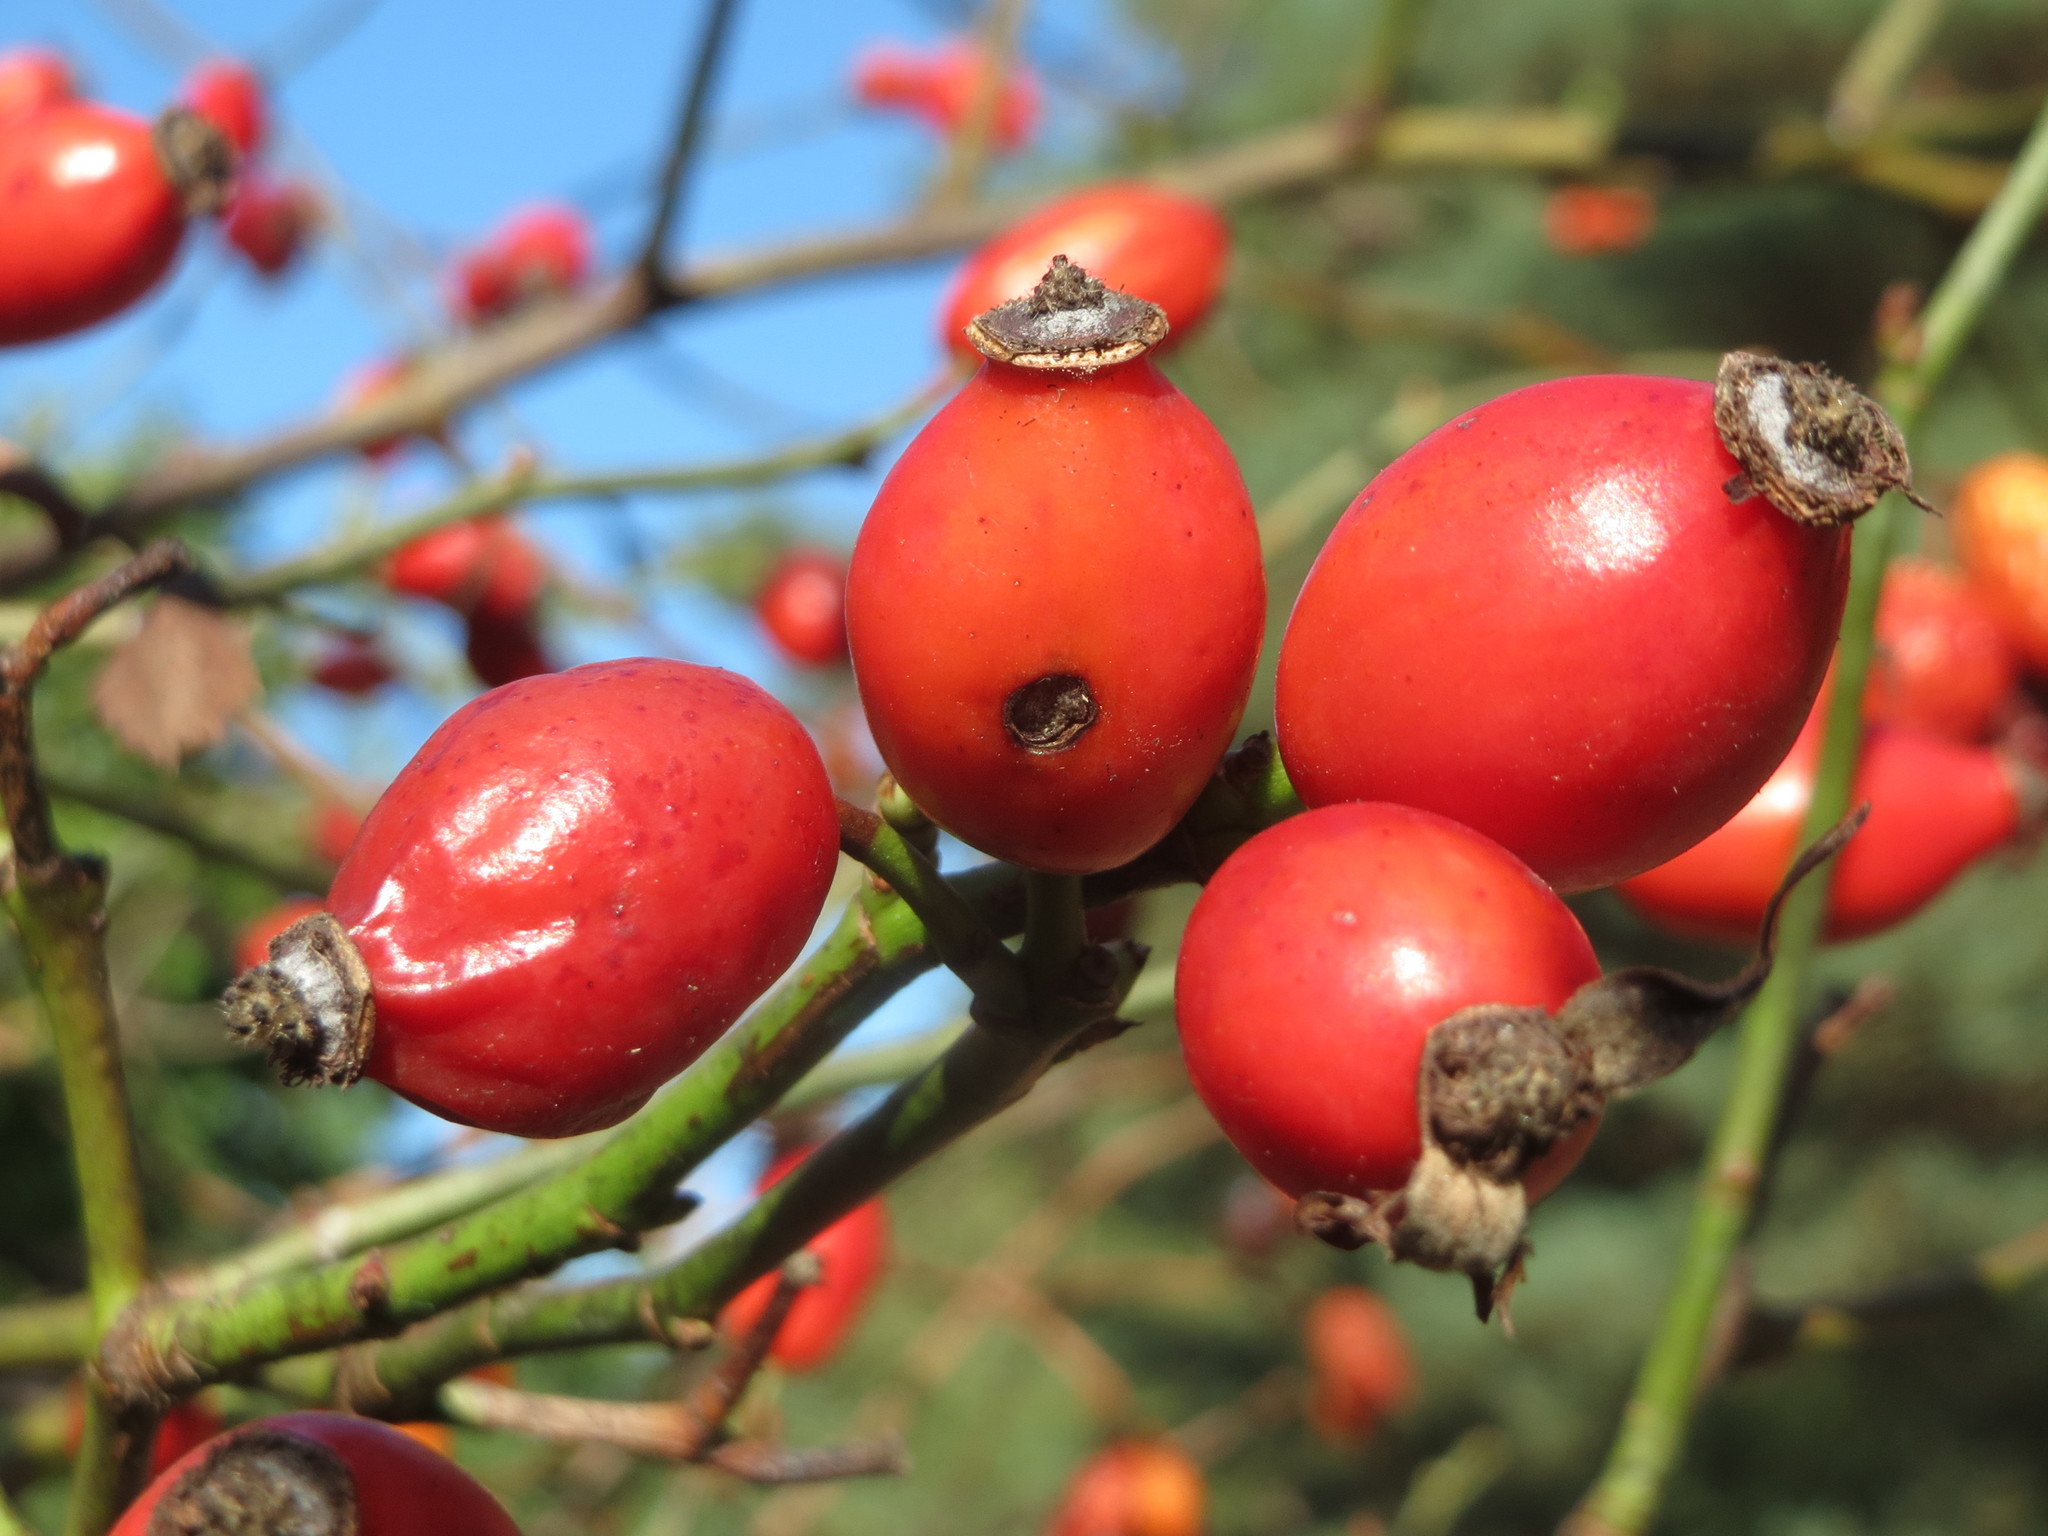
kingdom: Plantae
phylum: Tracheophyta
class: Magnoliopsida
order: Rosales
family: Rosaceae
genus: Rosa
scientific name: Rosa canina
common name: Dog rose
